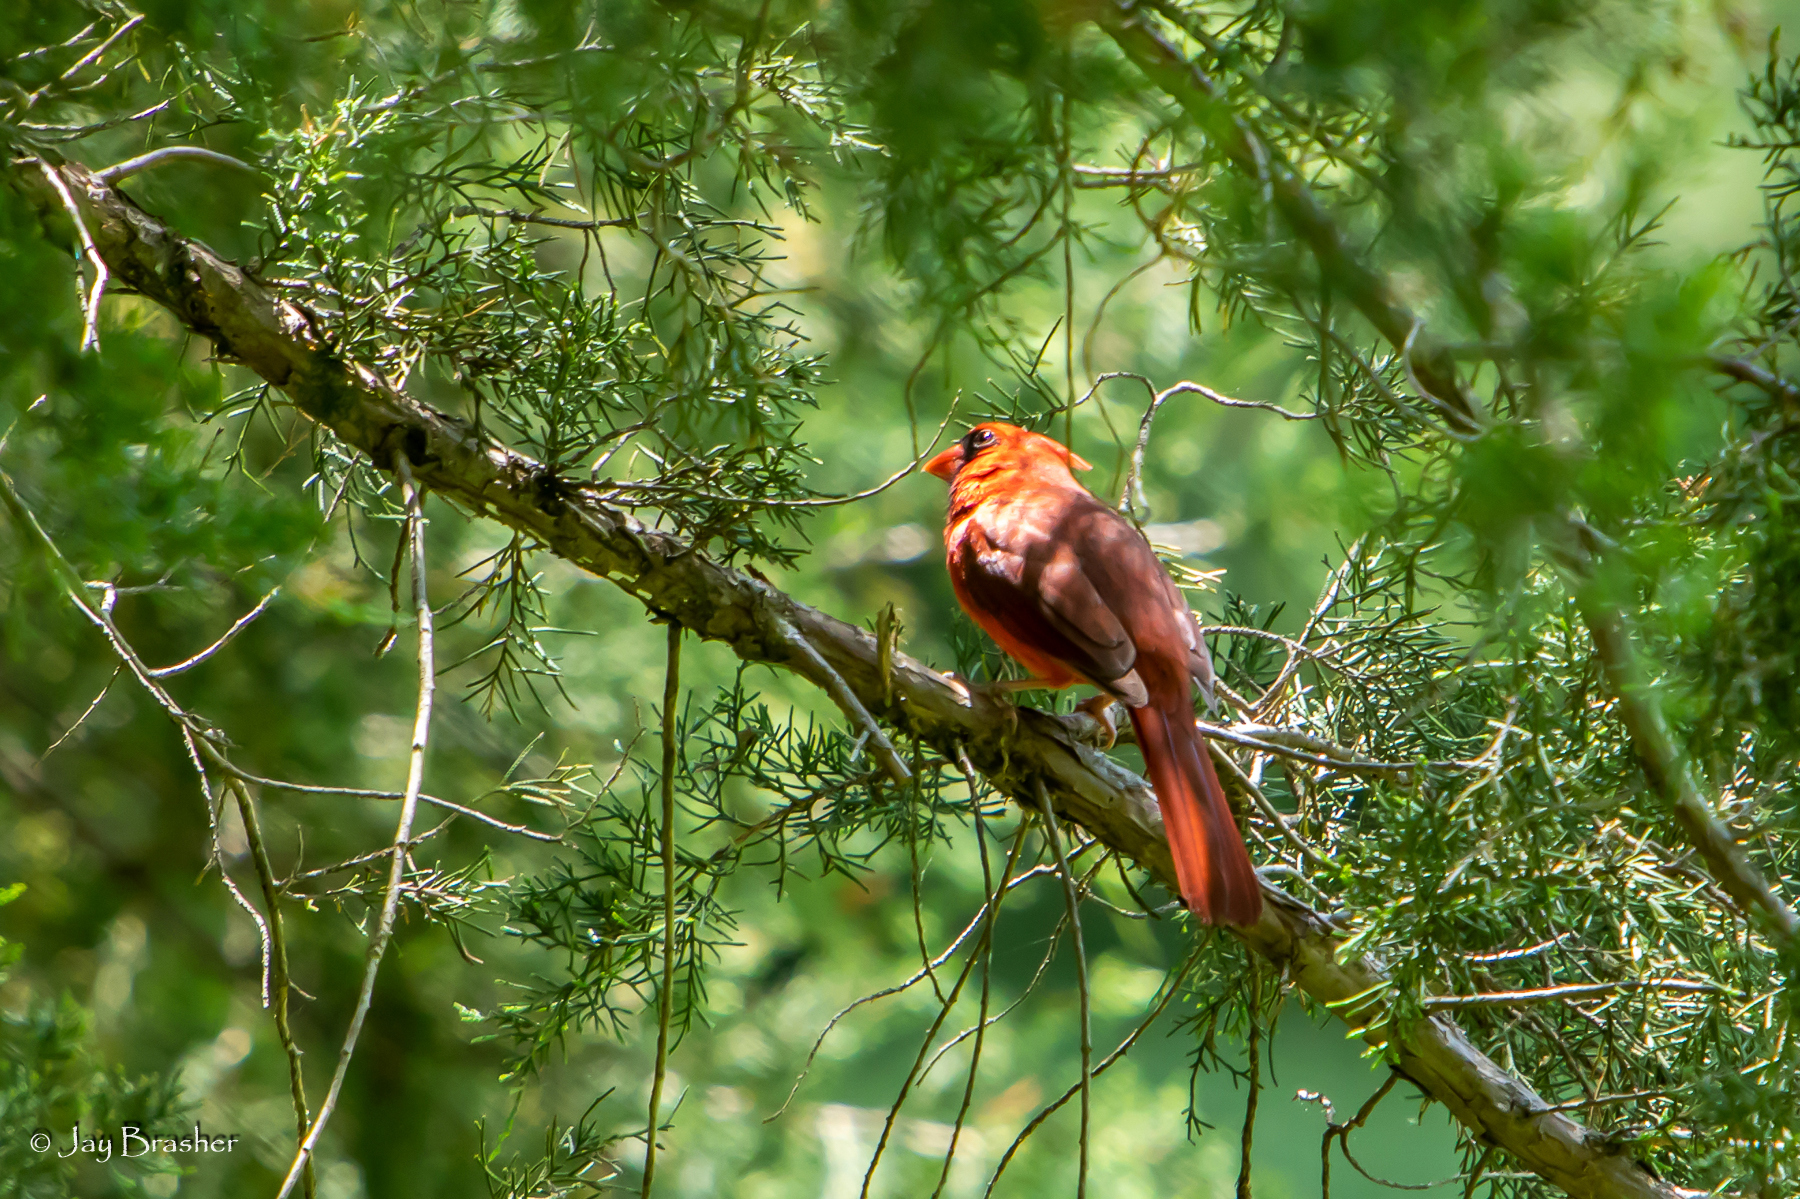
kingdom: Animalia
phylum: Chordata
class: Aves
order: Passeriformes
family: Cardinalidae
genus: Cardinalis
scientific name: Cardinalis cardinalis
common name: Northern cardinal
